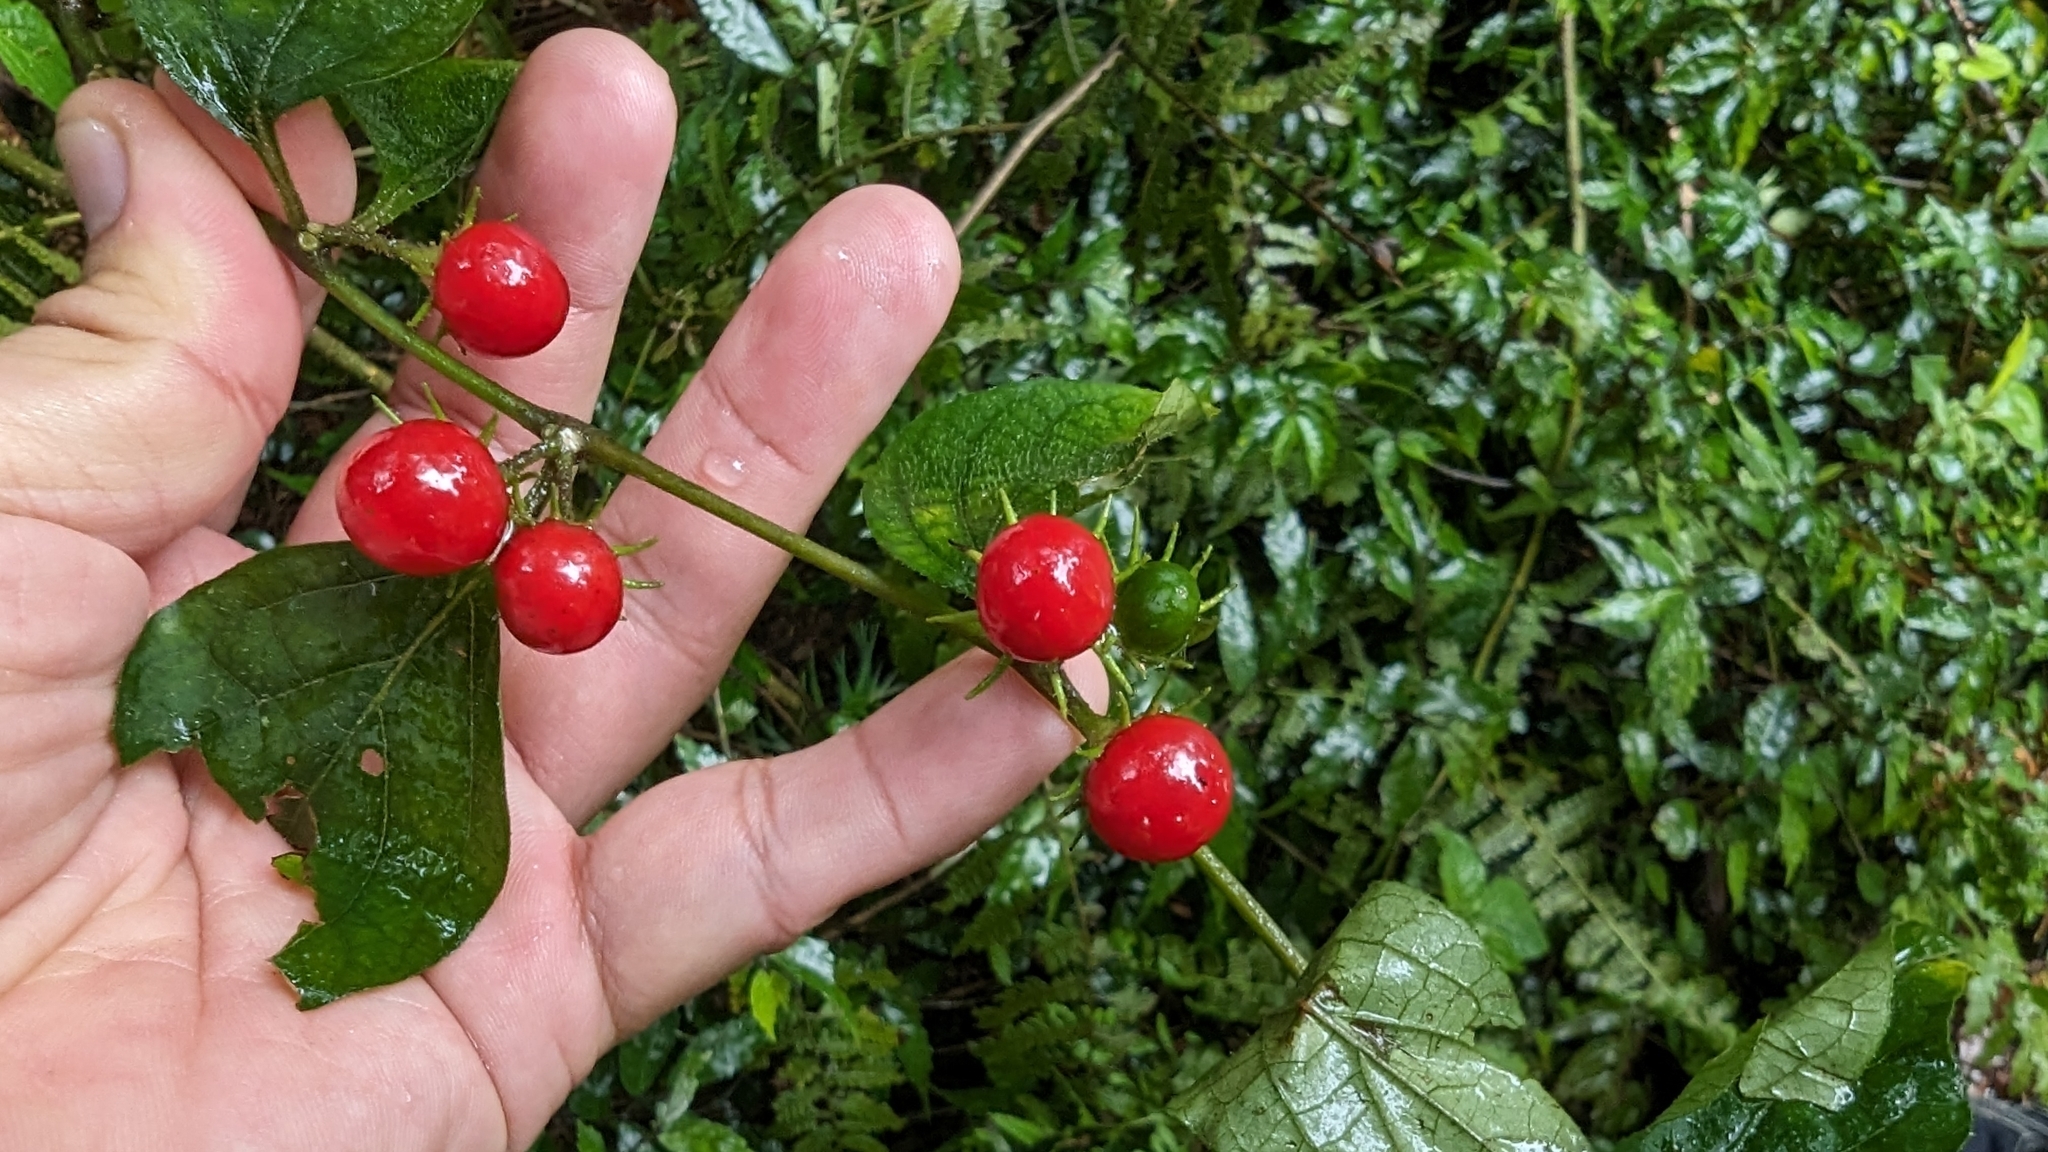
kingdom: Plantae
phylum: Tracheophyta
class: Magnoliopsida
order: Solanales
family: Solanaceae
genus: Lycianthes
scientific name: Lycianthes biflora
